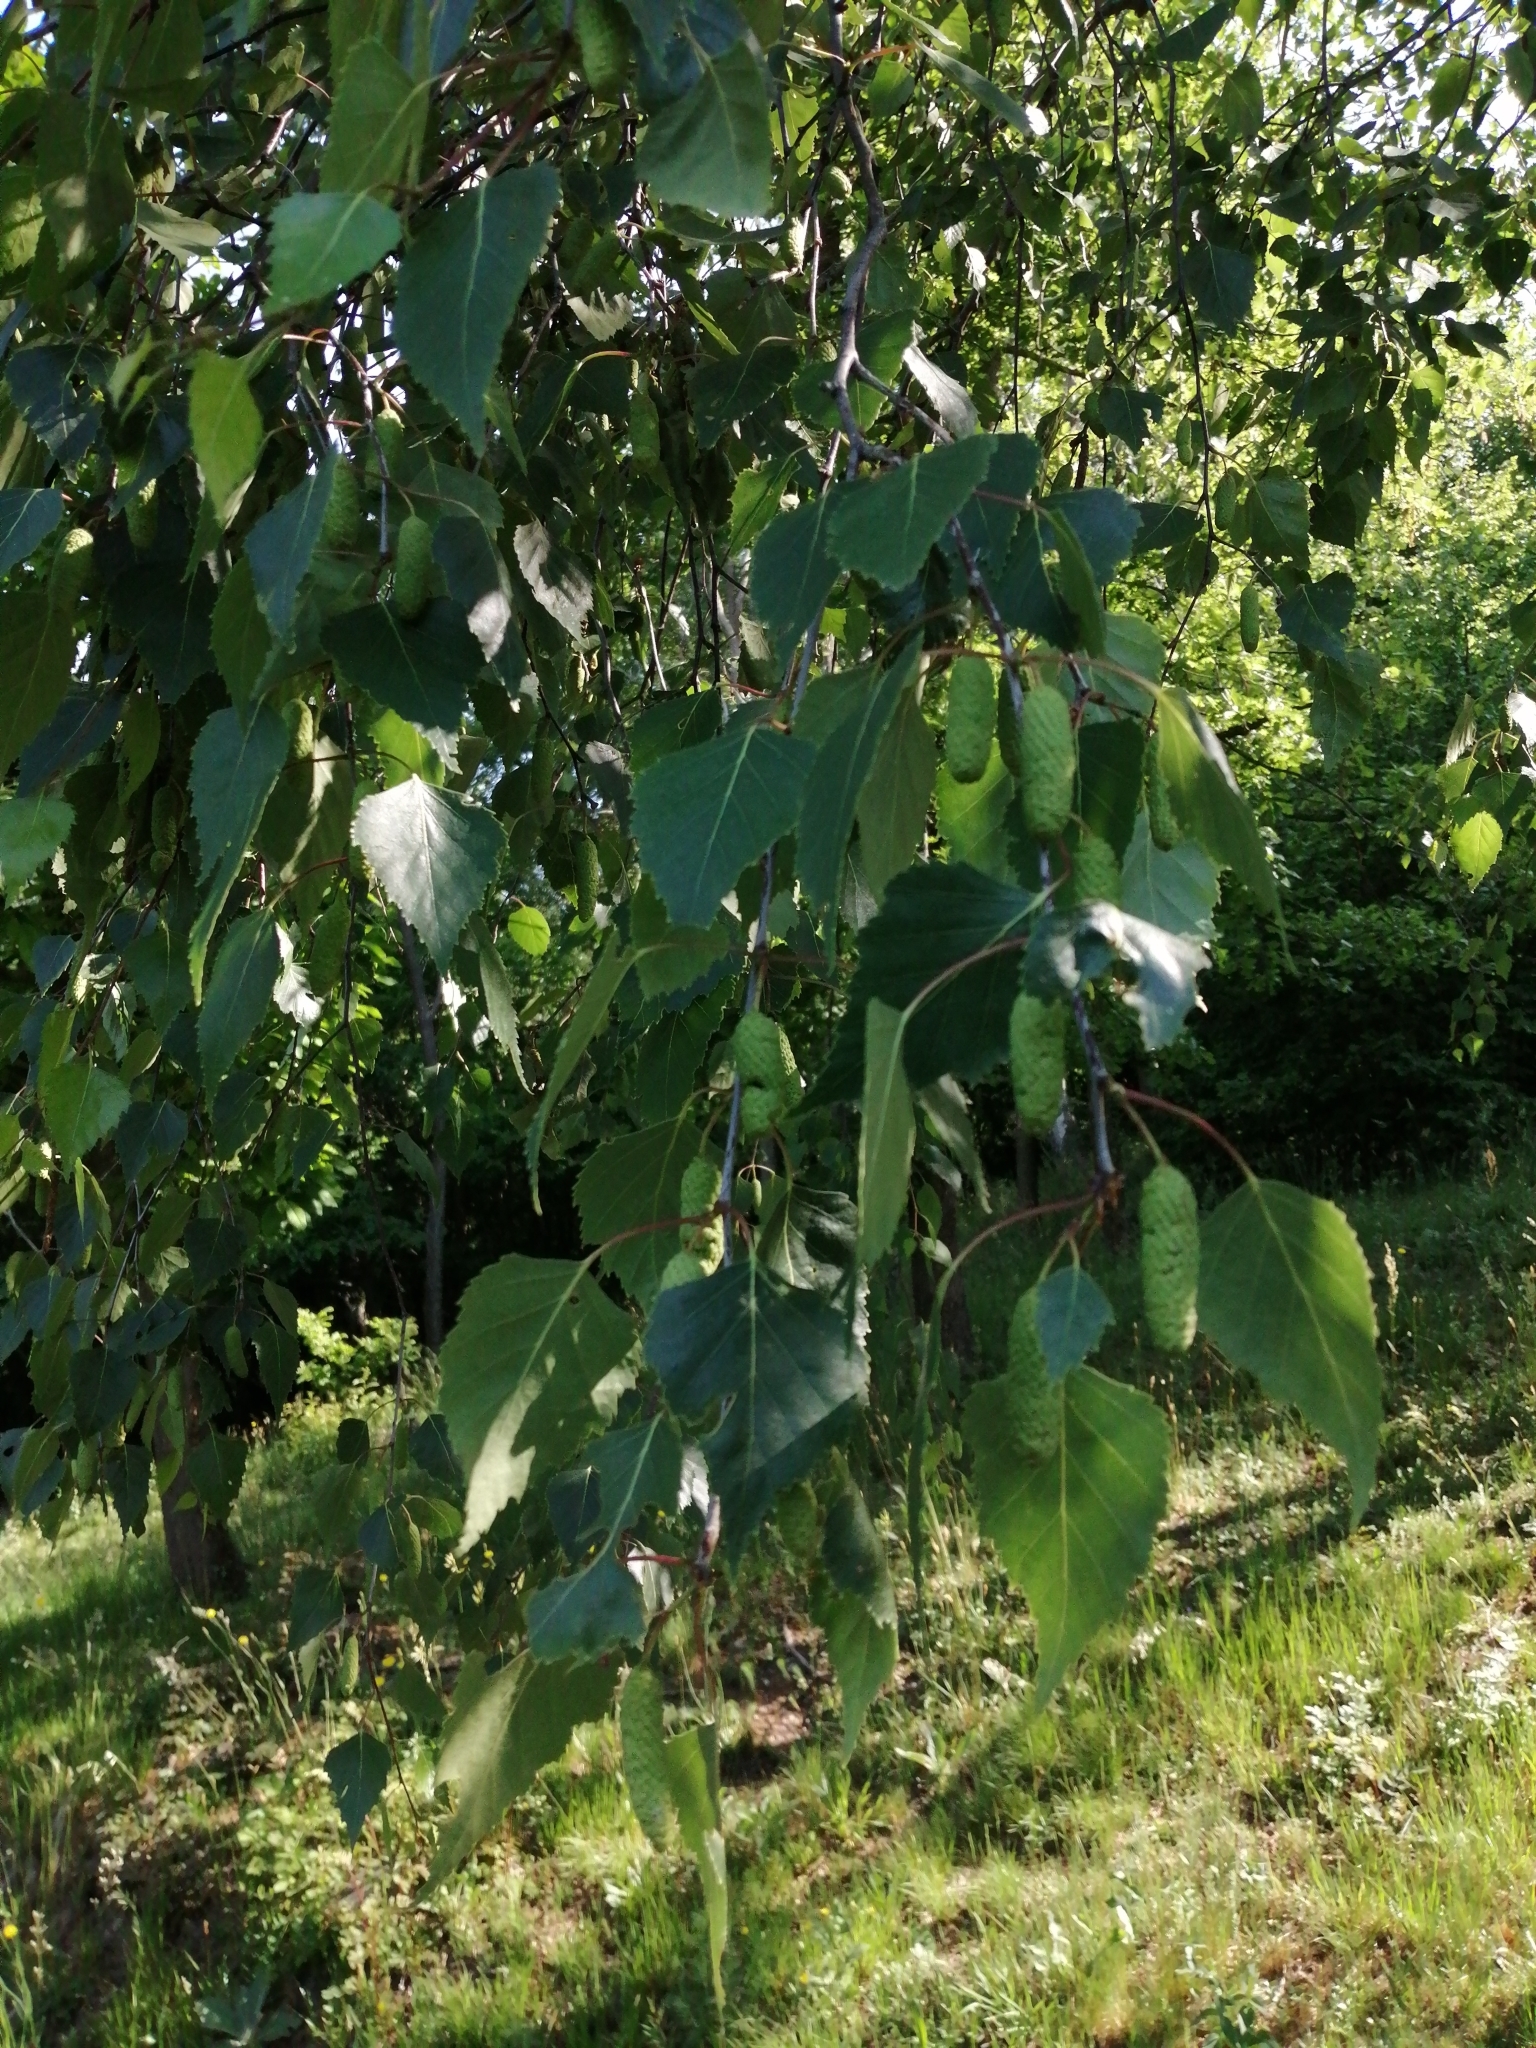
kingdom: Plantae
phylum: Tracheophyta
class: Magnoliopsida
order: Fagales
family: Betulaceae
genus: Betula
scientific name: Betula pendula
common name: Silver birch
